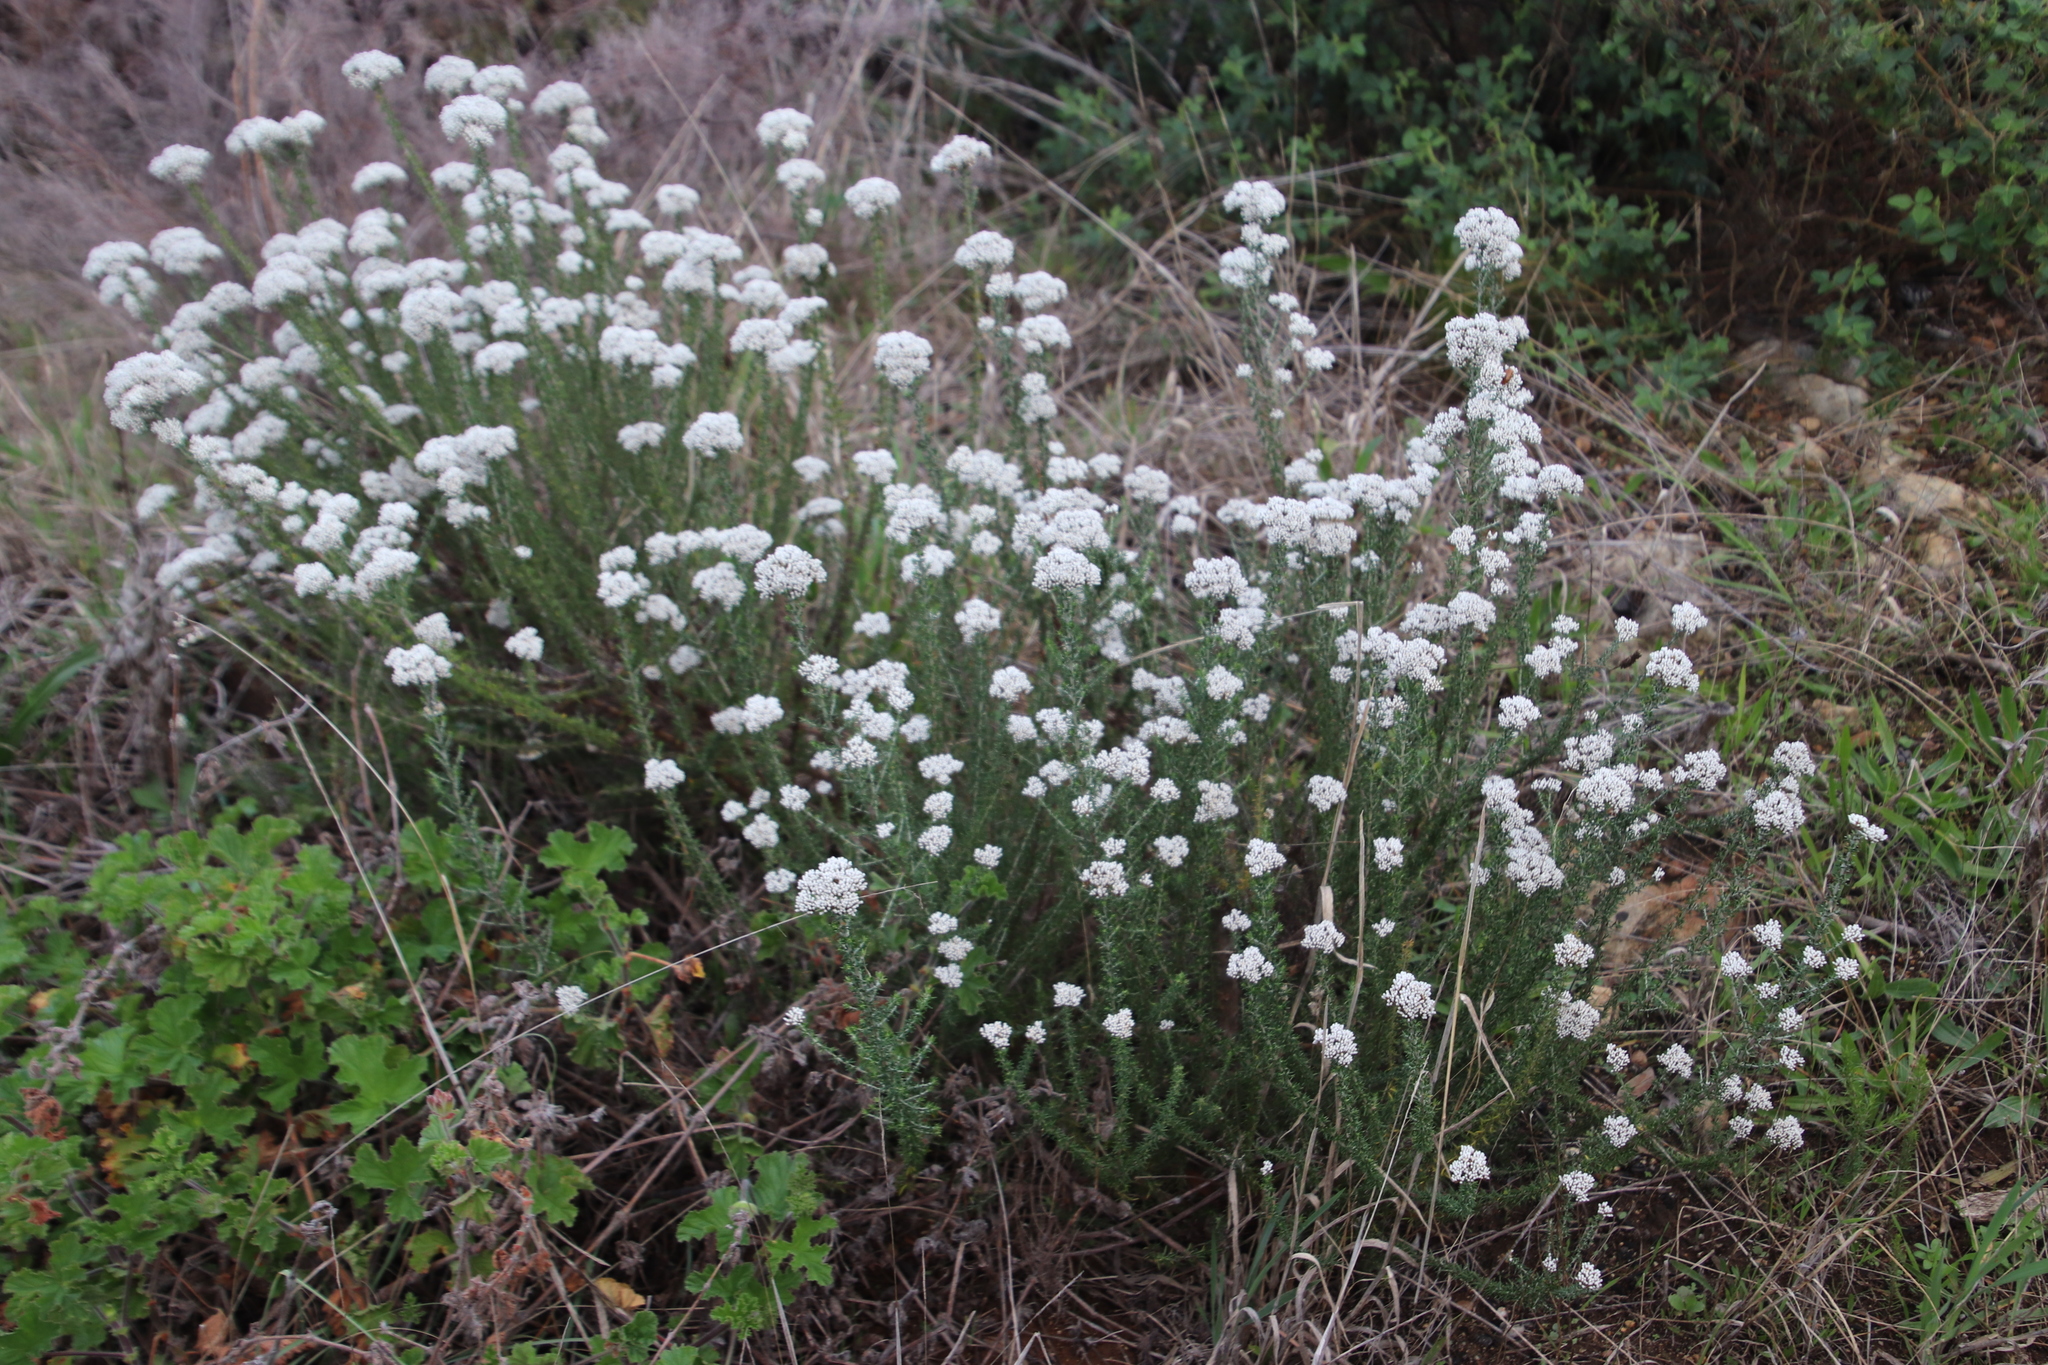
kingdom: Plantae
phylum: Tracheophyta
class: Magnoliopsida
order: Asterales
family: Asteraceae
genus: Metalasia
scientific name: Metalasia densa
